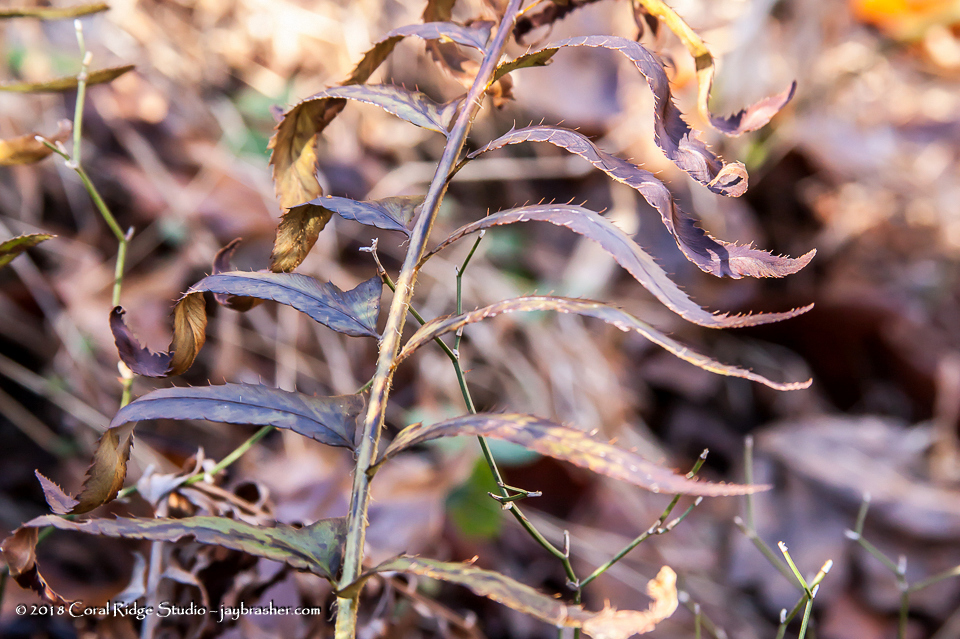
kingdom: Plantae
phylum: Tracheophyta
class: Polypodiopsida
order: Polypodiales
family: Dryopteridaceae
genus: Polystichum
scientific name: Polystichum acrostichoides
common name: Christmas fern
